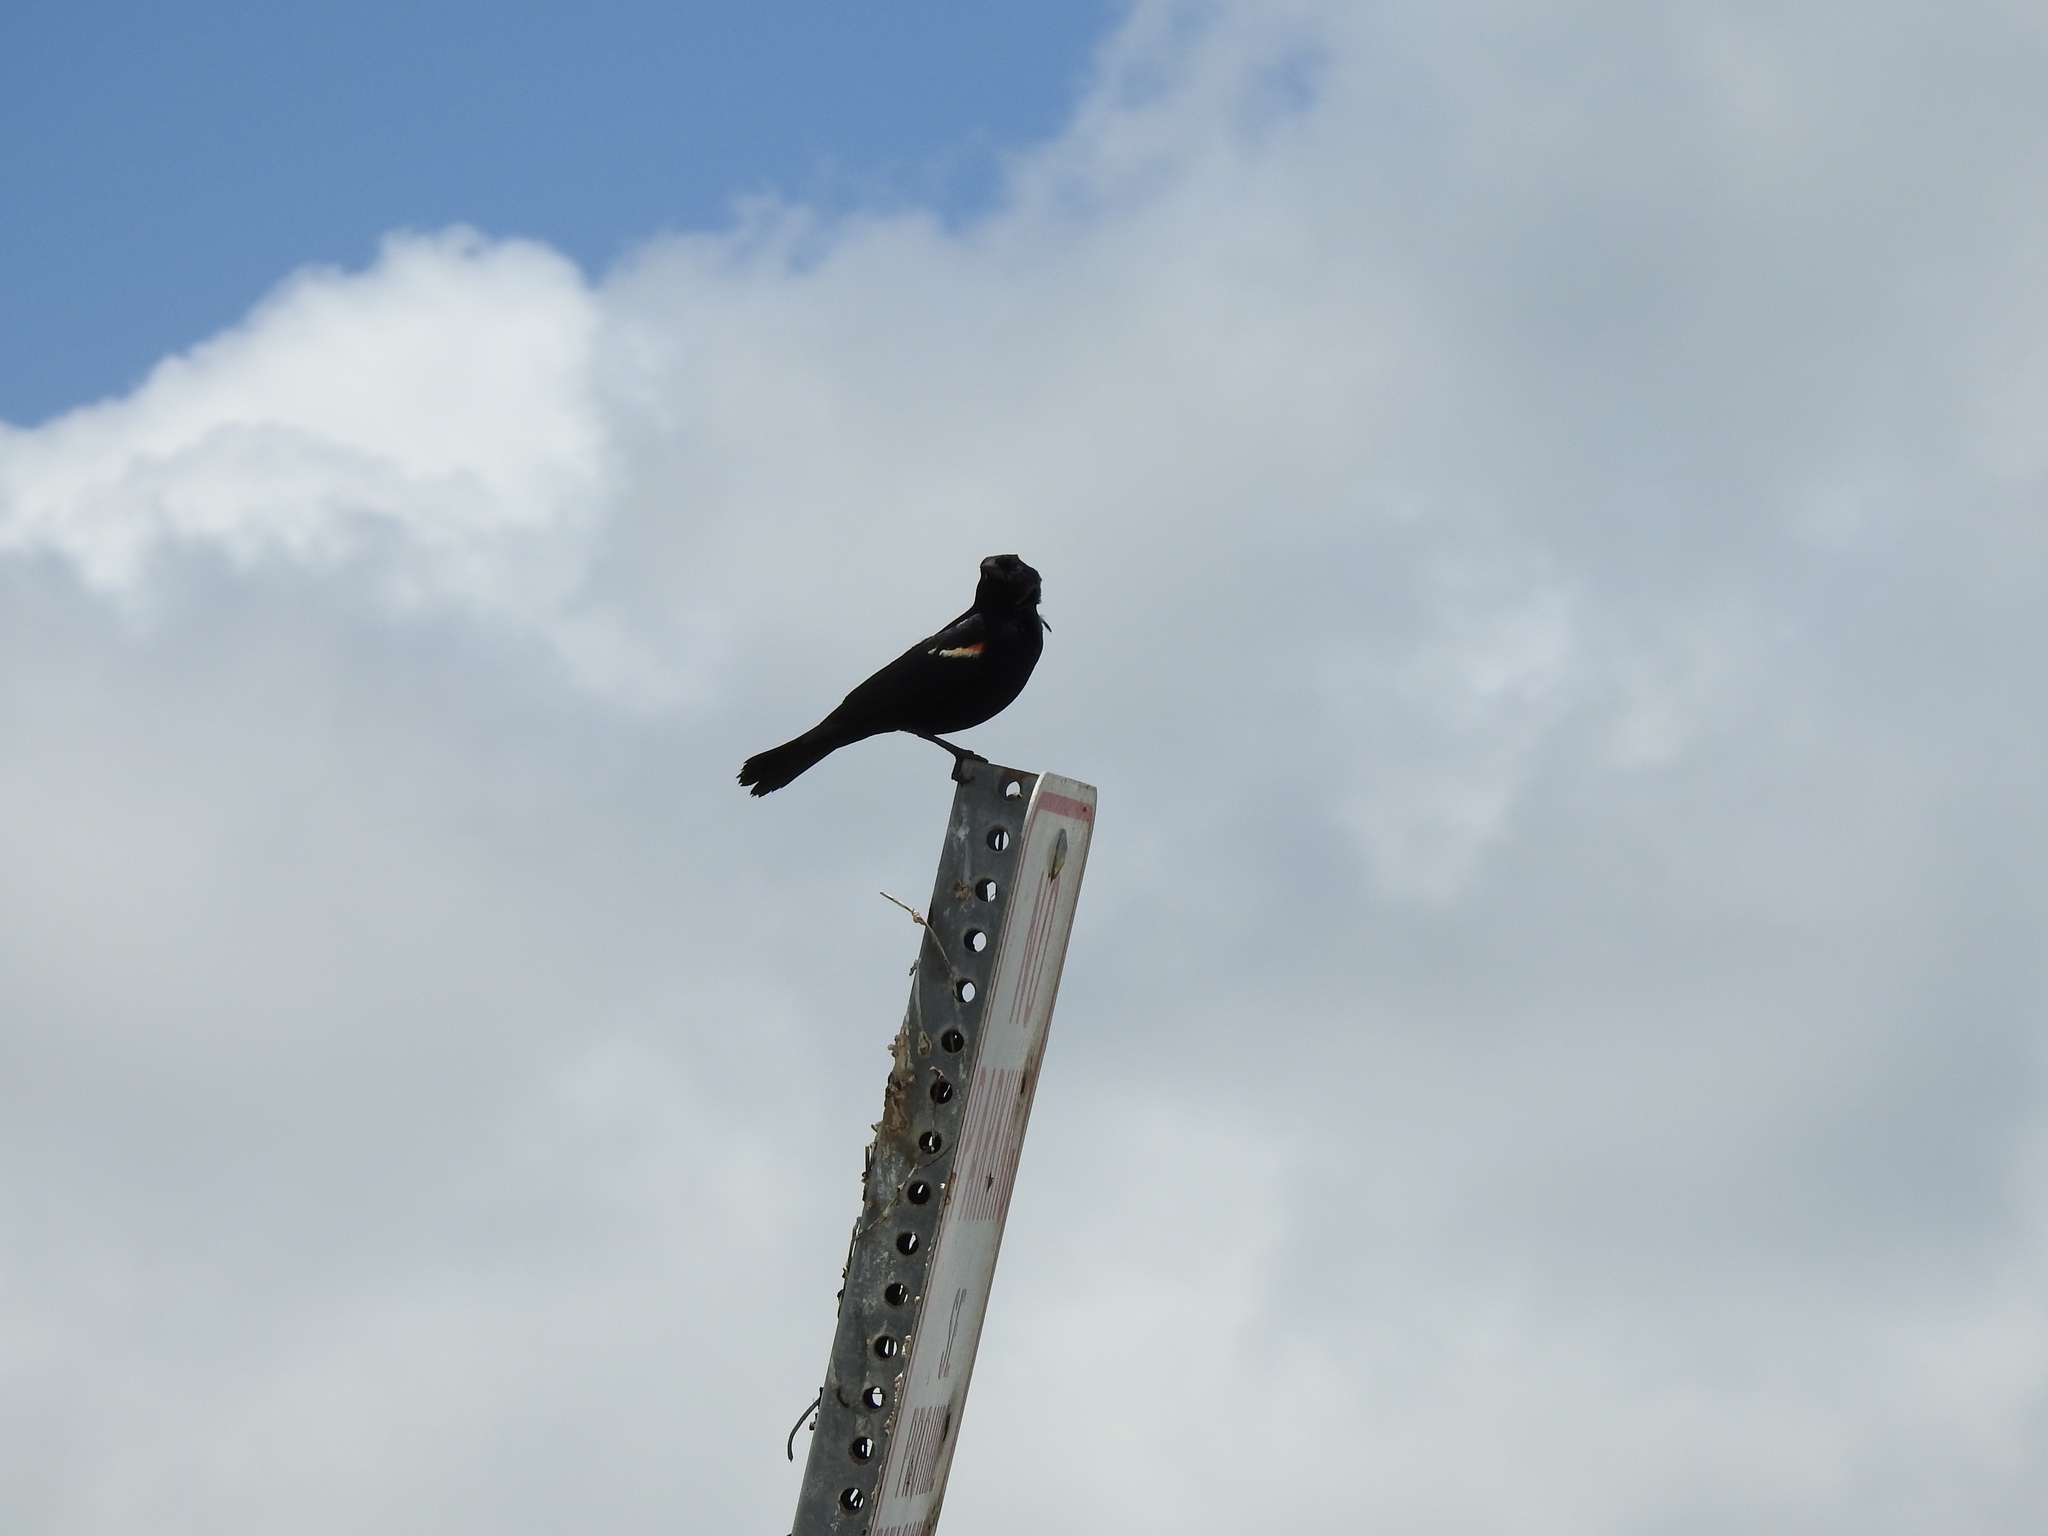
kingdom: Animalia
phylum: Chordata
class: Aves
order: Passeriformes
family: Icteridae
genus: Agelaius
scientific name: Agelaius phoeniceus
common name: Red-winged blackbird
